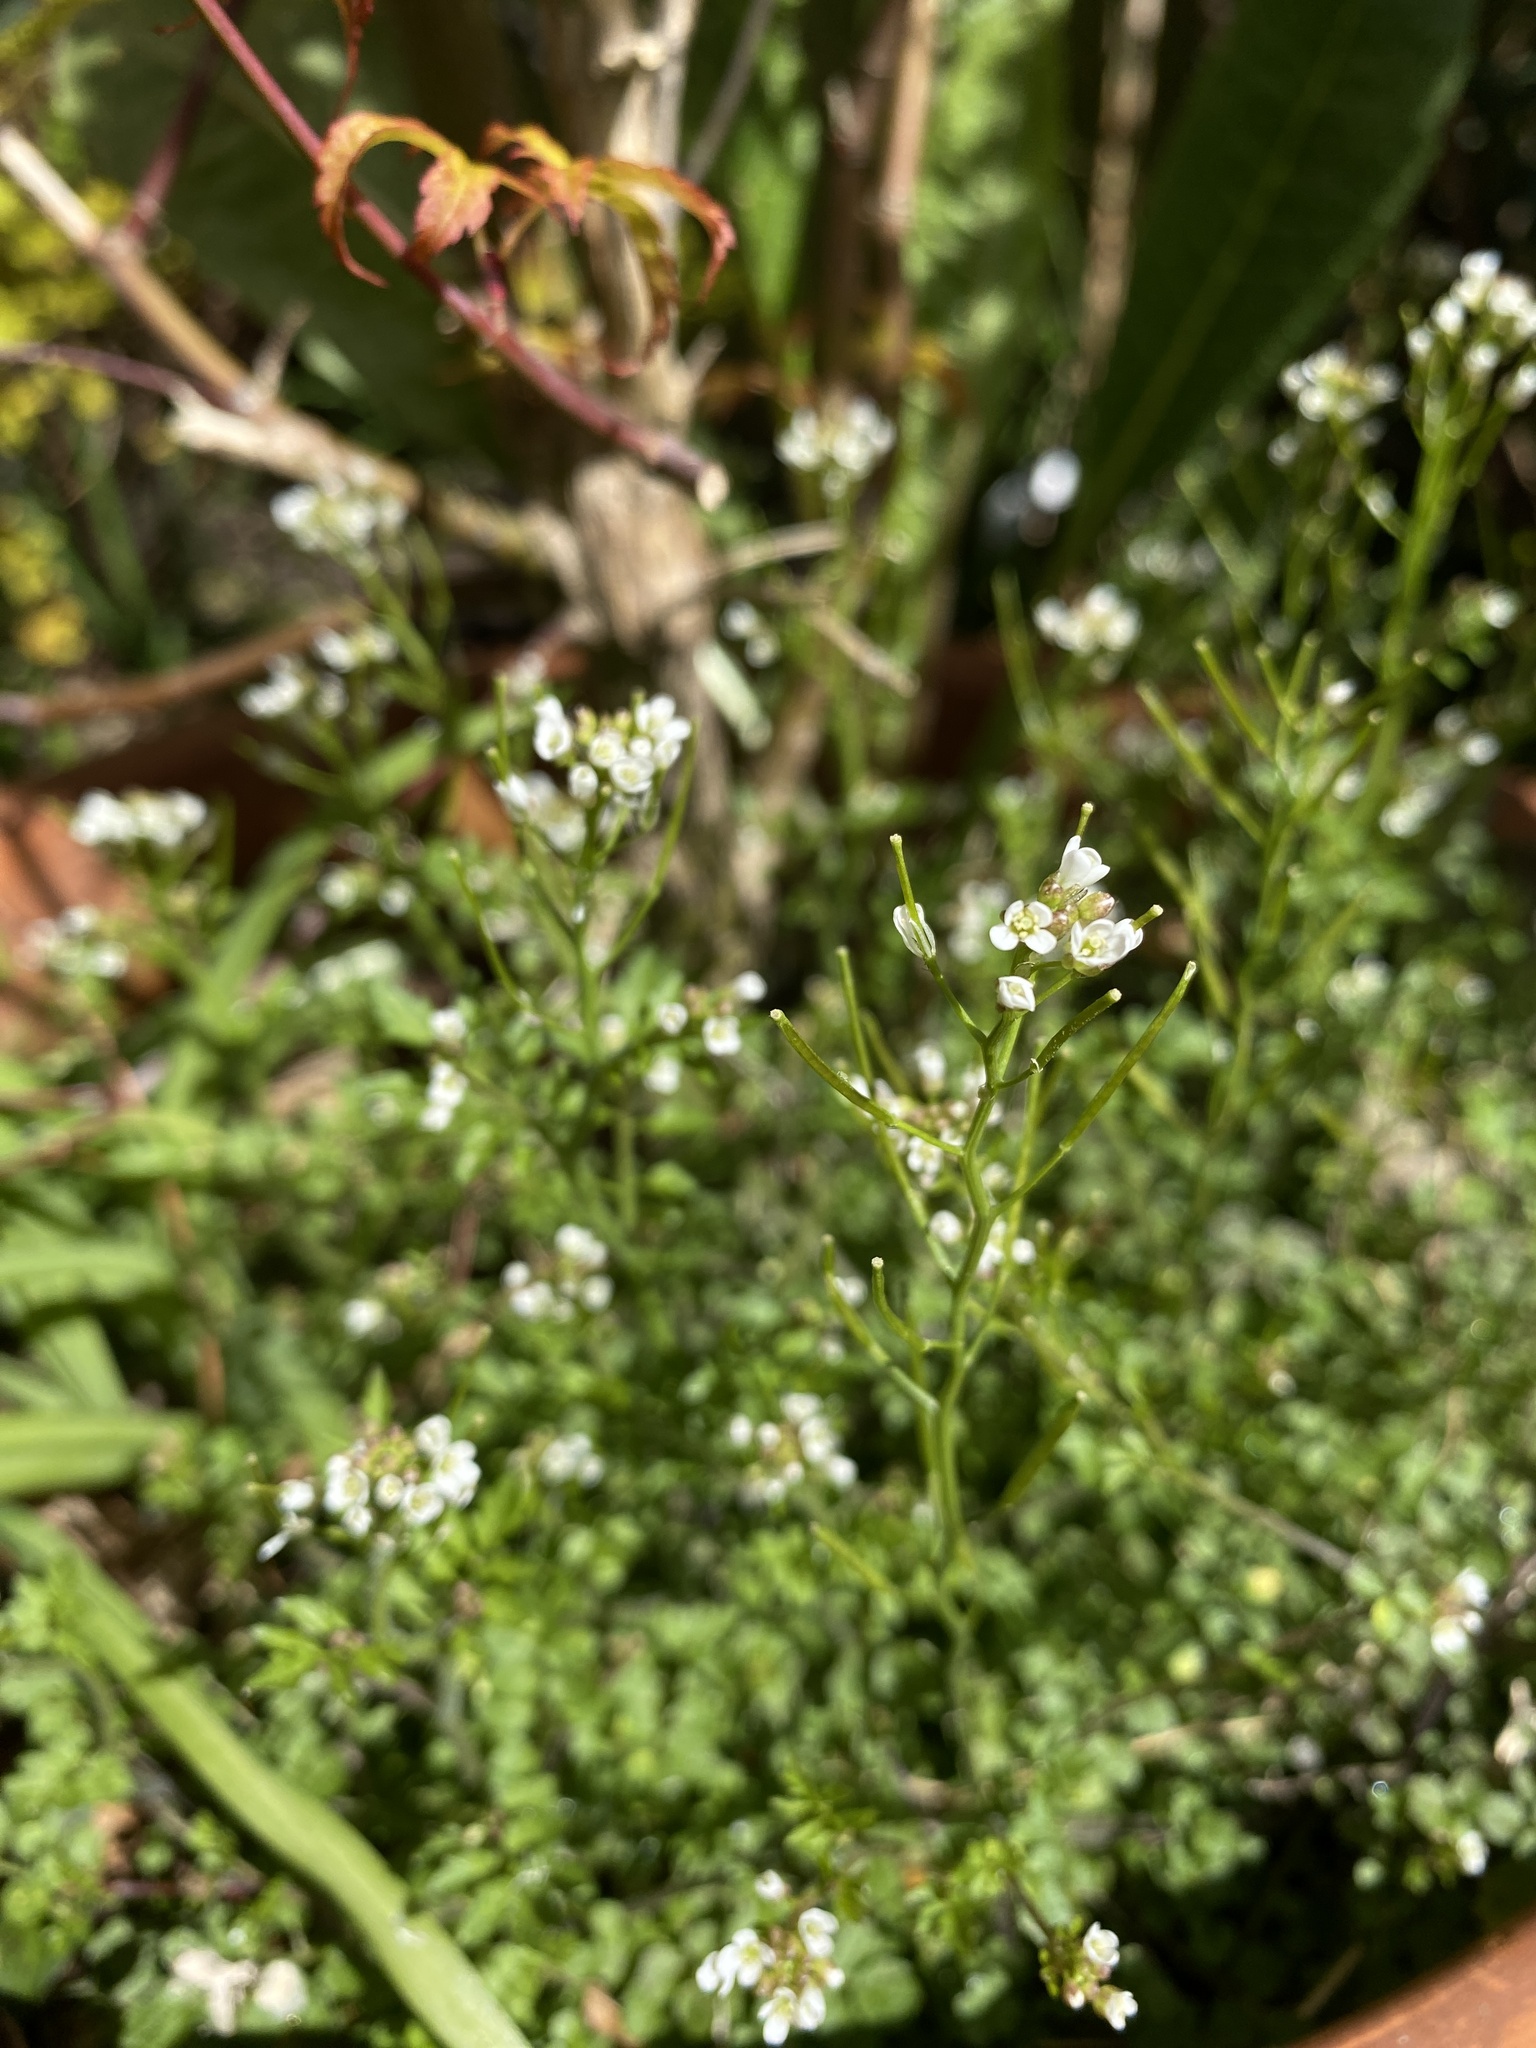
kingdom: Plantae
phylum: Tracheophyta
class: Magnoliopsida
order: Brassicales
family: Brassicaceae
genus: Cardamine
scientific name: Cardamine flexuosa
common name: Woodland bittercress
